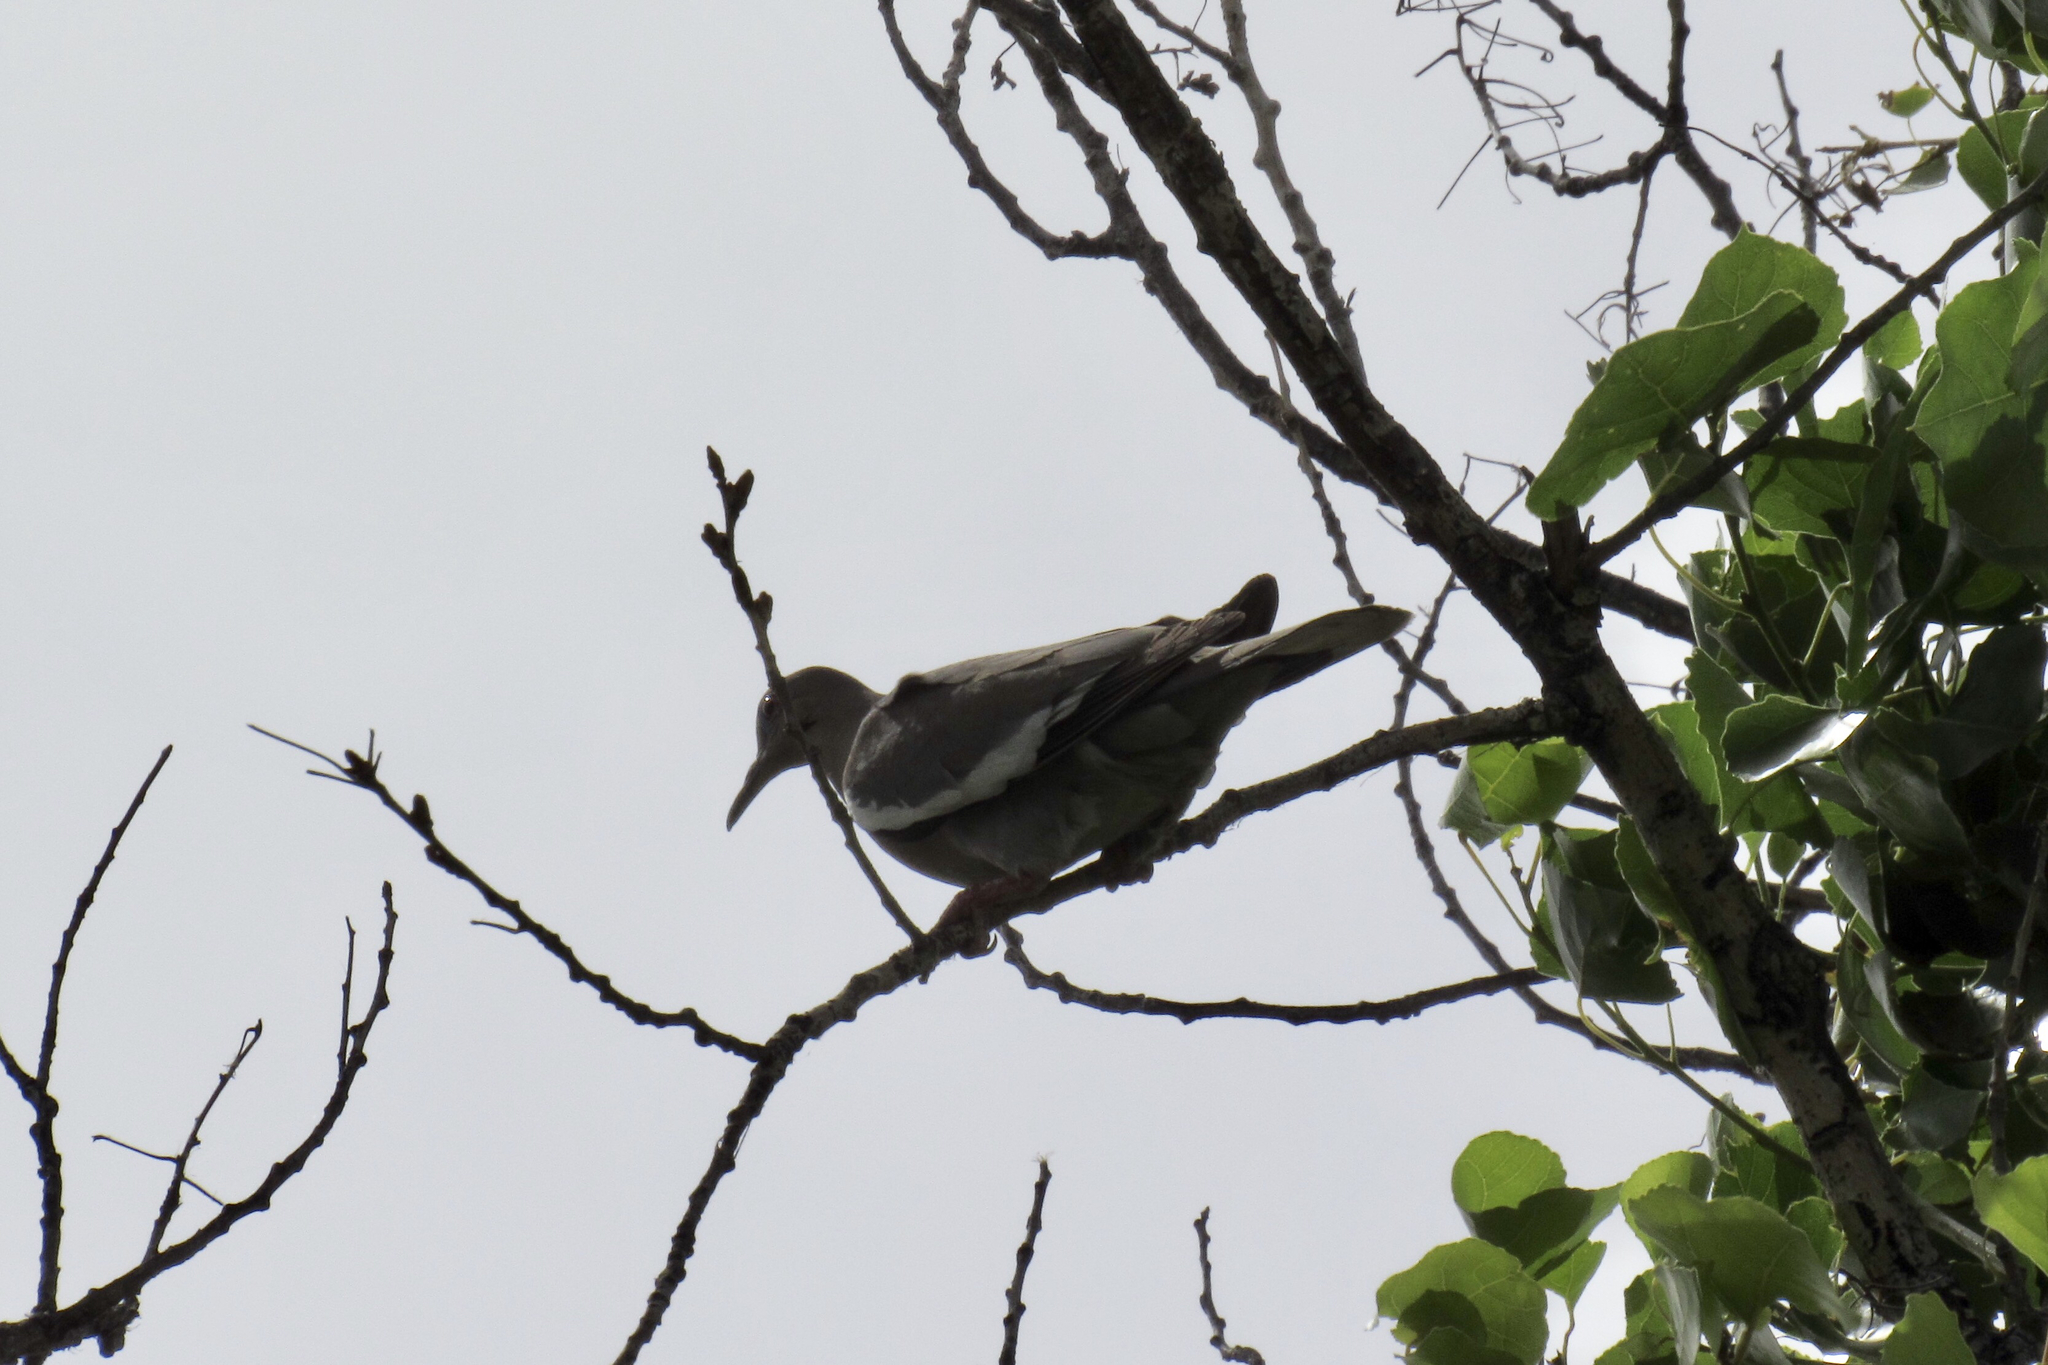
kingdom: Animalia
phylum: Chordata
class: Aves
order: Columbiformes
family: Columbidae
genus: Zenaida
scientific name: Zenaida asiatica
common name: White-winged dove
